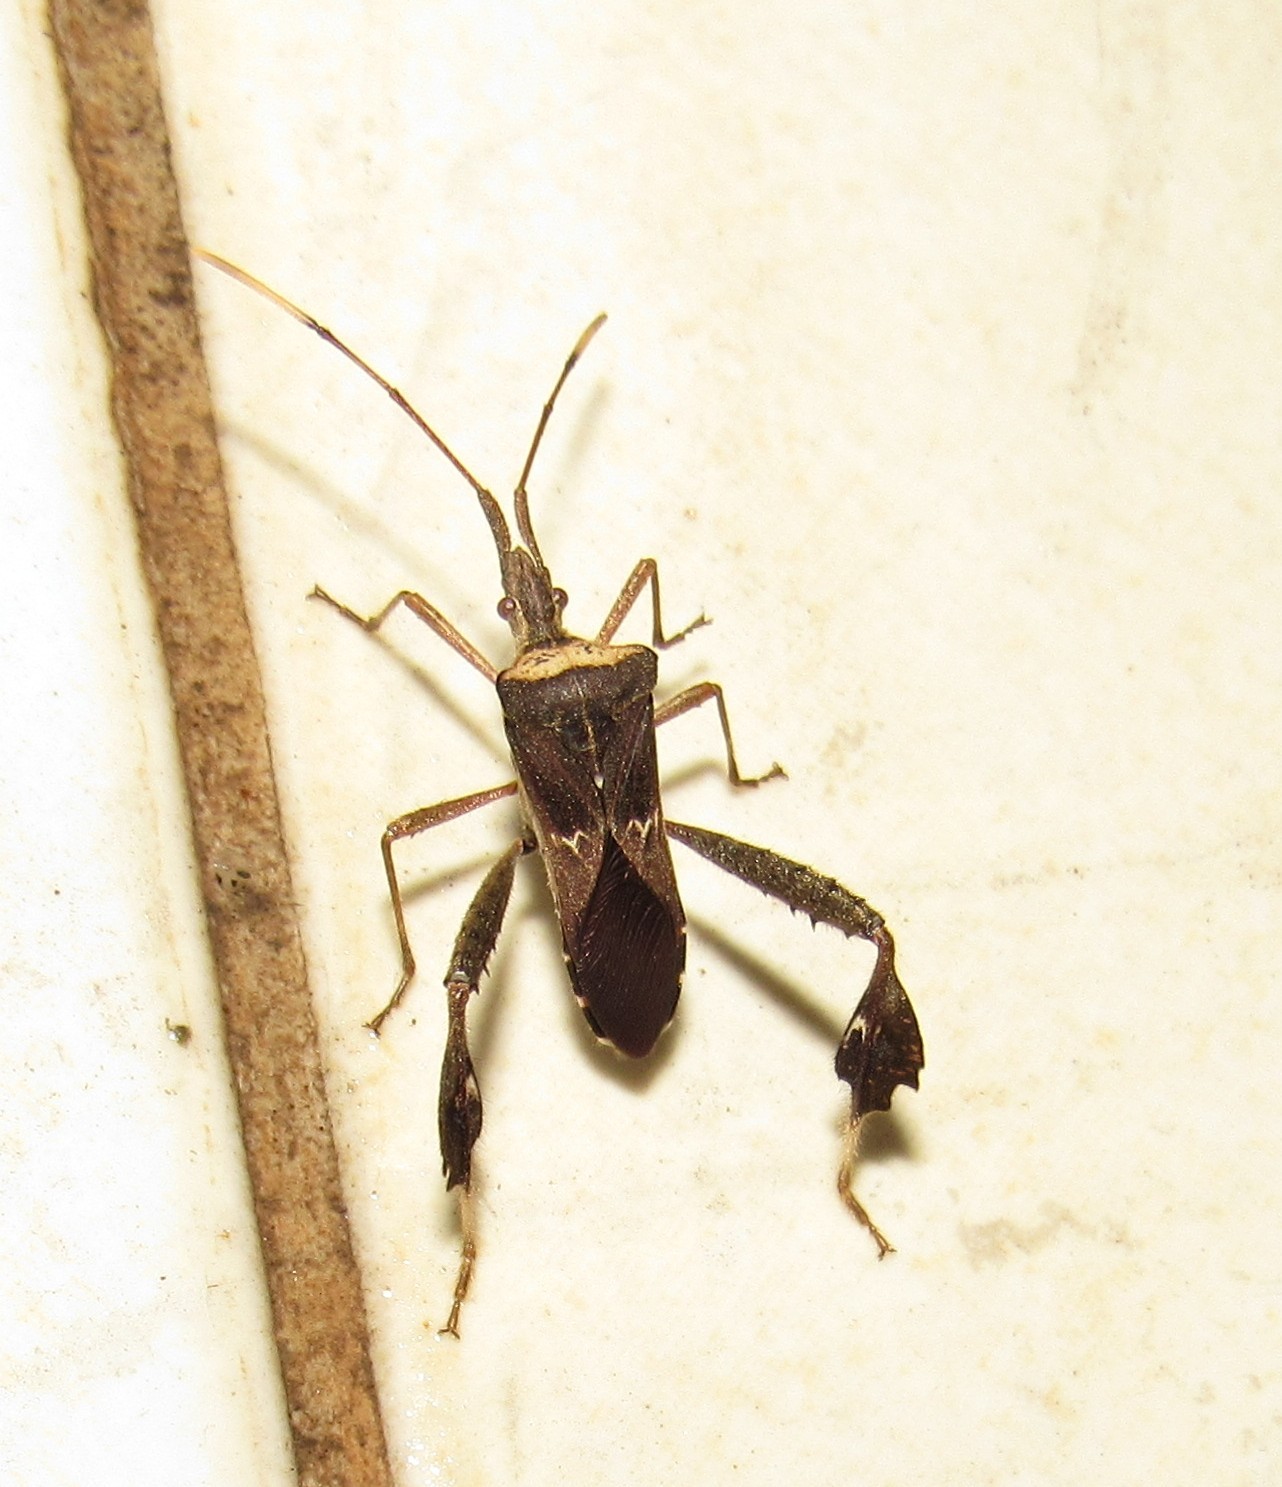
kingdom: Animalia
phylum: Arthropoda
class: Insecta
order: Hemiptera
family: Coreidae
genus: Leptoglossus
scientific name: Leptoglossus zonatus
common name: Large-legged bug
